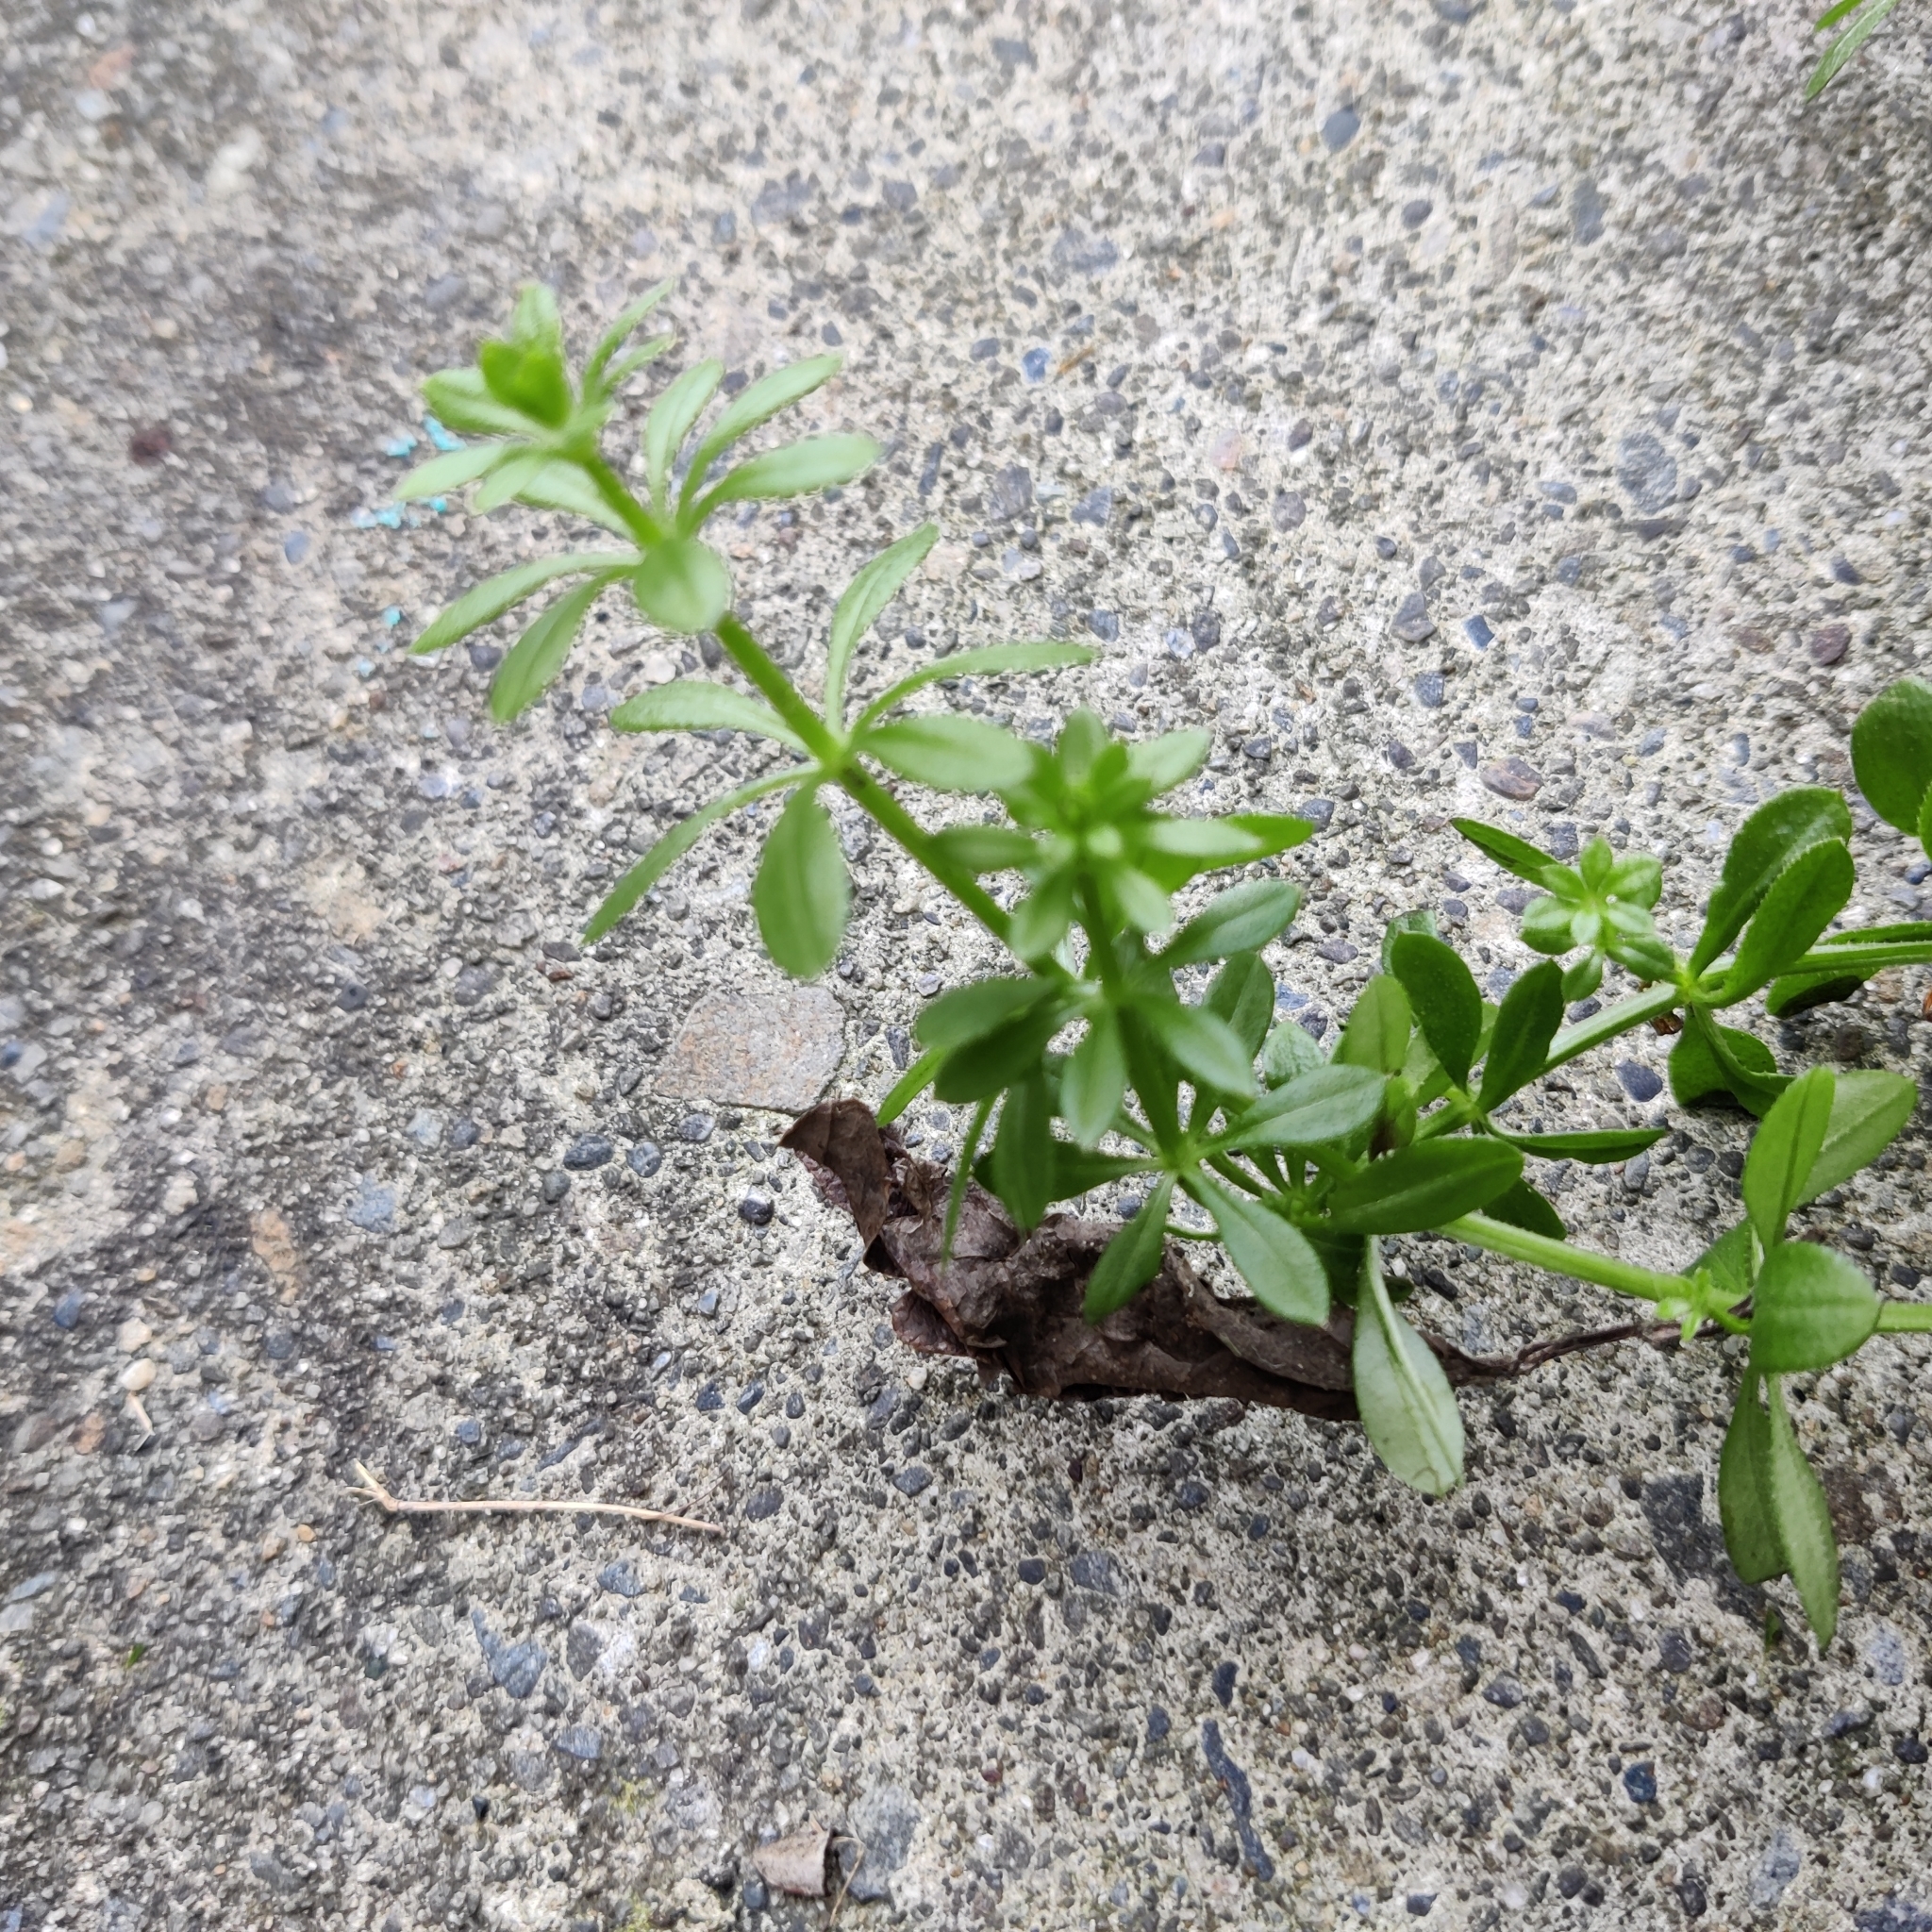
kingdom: Plantae
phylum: Tracheophyta
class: Magnoliopsida
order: Gentianales
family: Rubiaceae
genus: Galium
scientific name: Galium aparine
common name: Cleavers
